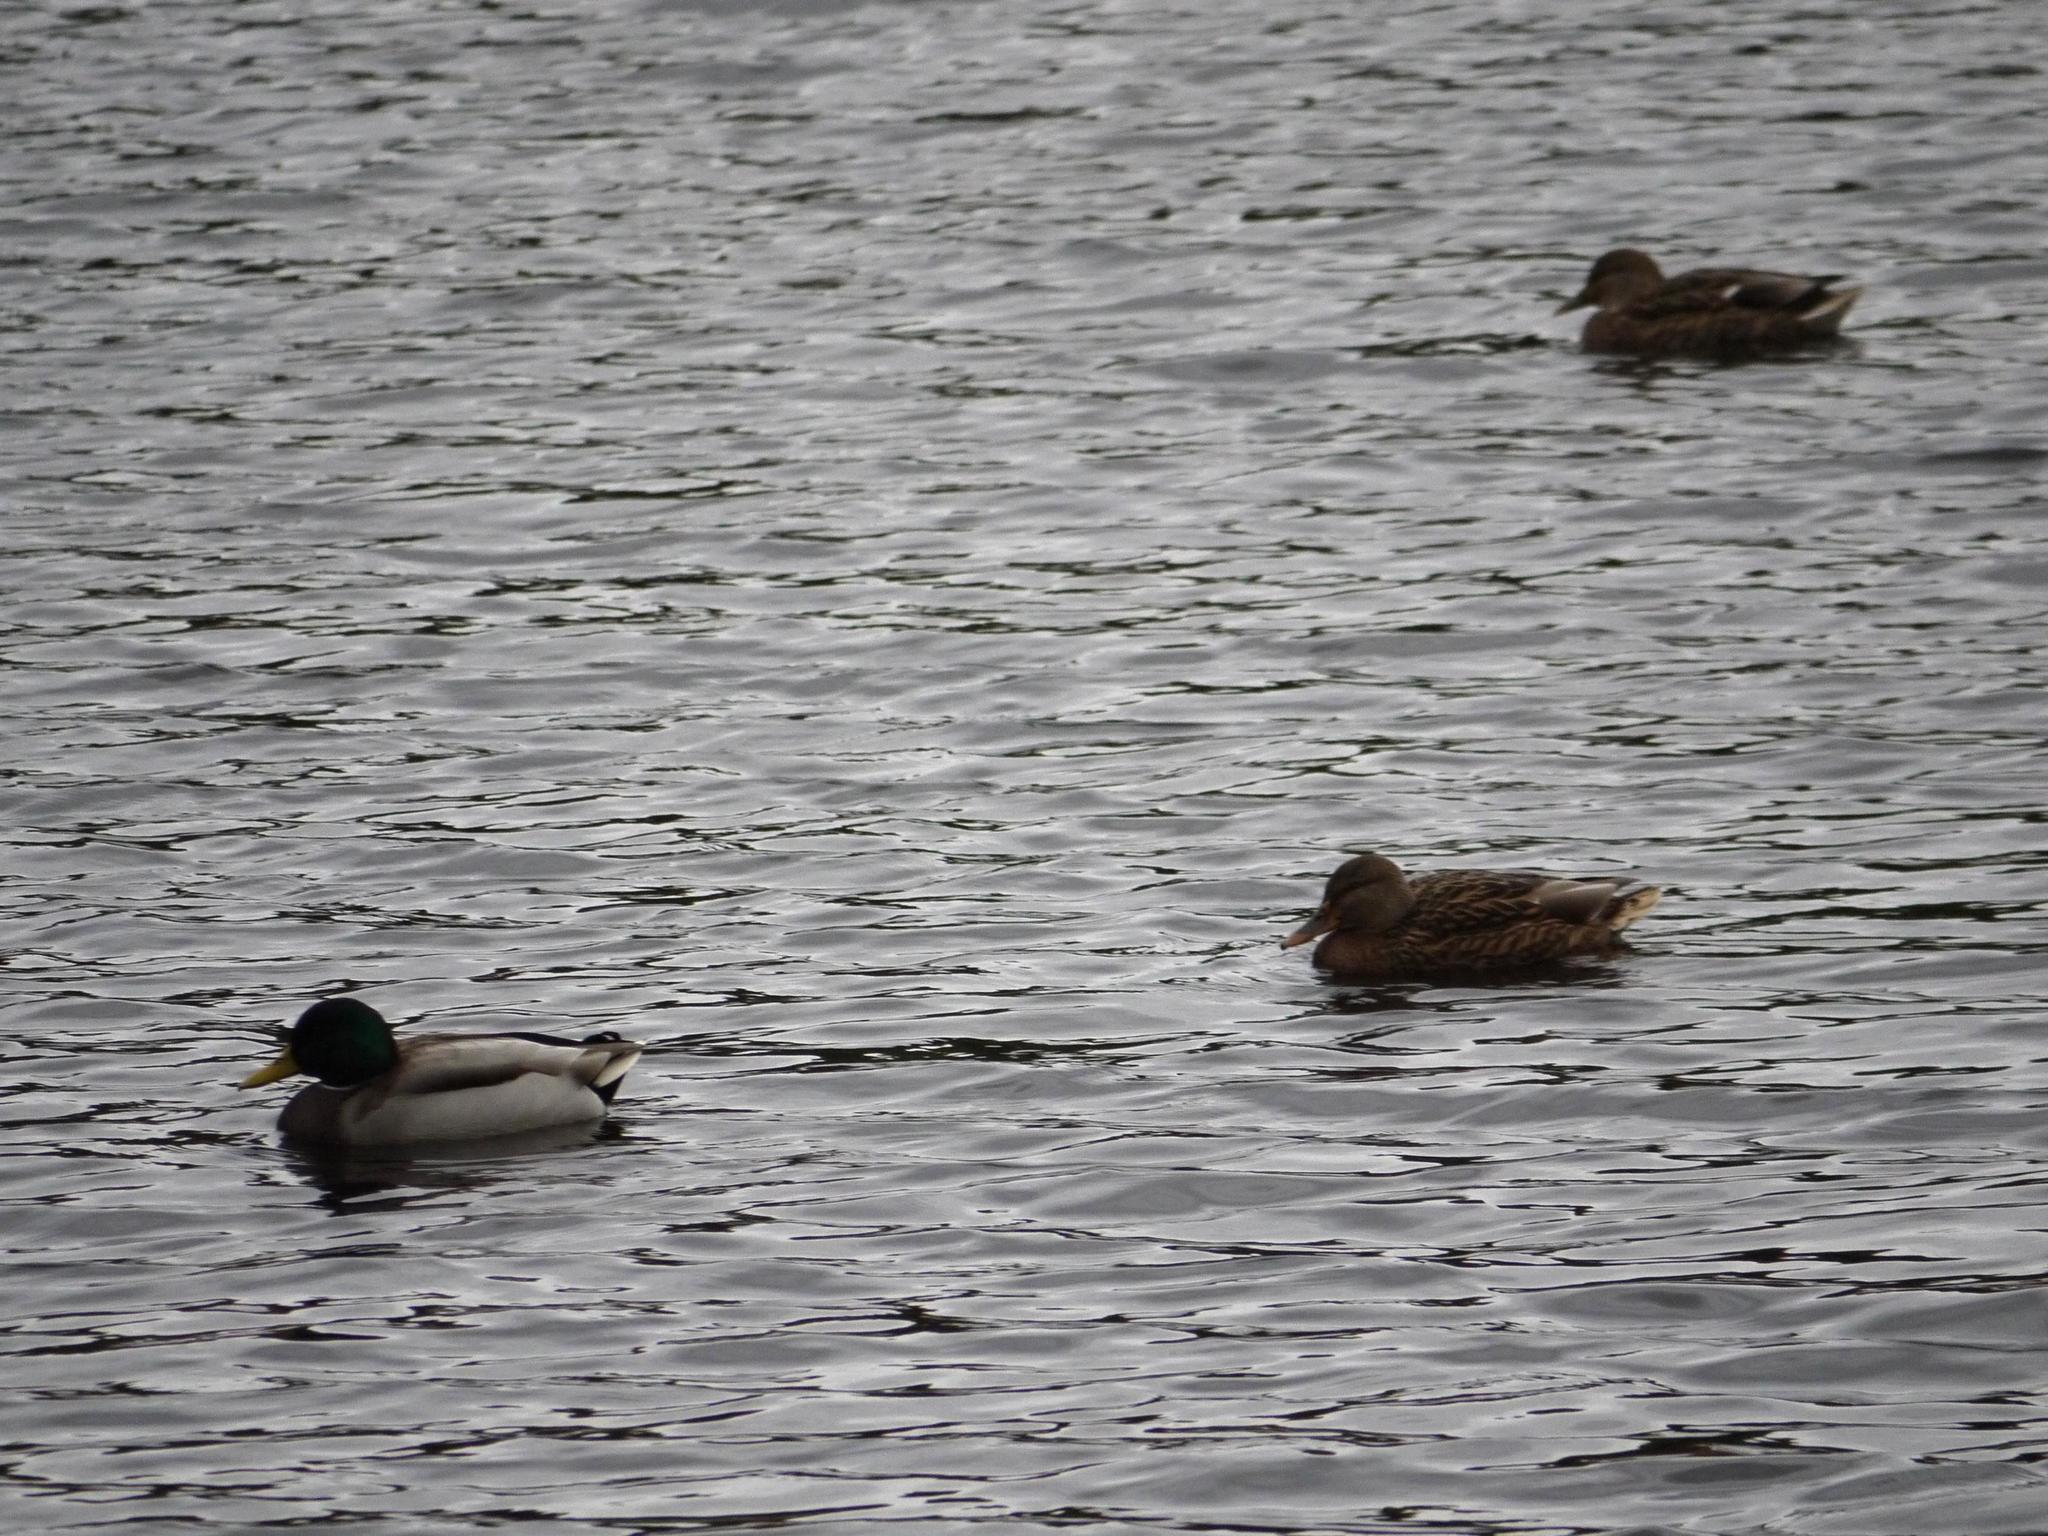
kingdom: Animalia
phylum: Chordata
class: Aves
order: Anseriformes
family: Anatidae
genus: Anas
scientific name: Anas platyrhynchos
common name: Mallard
